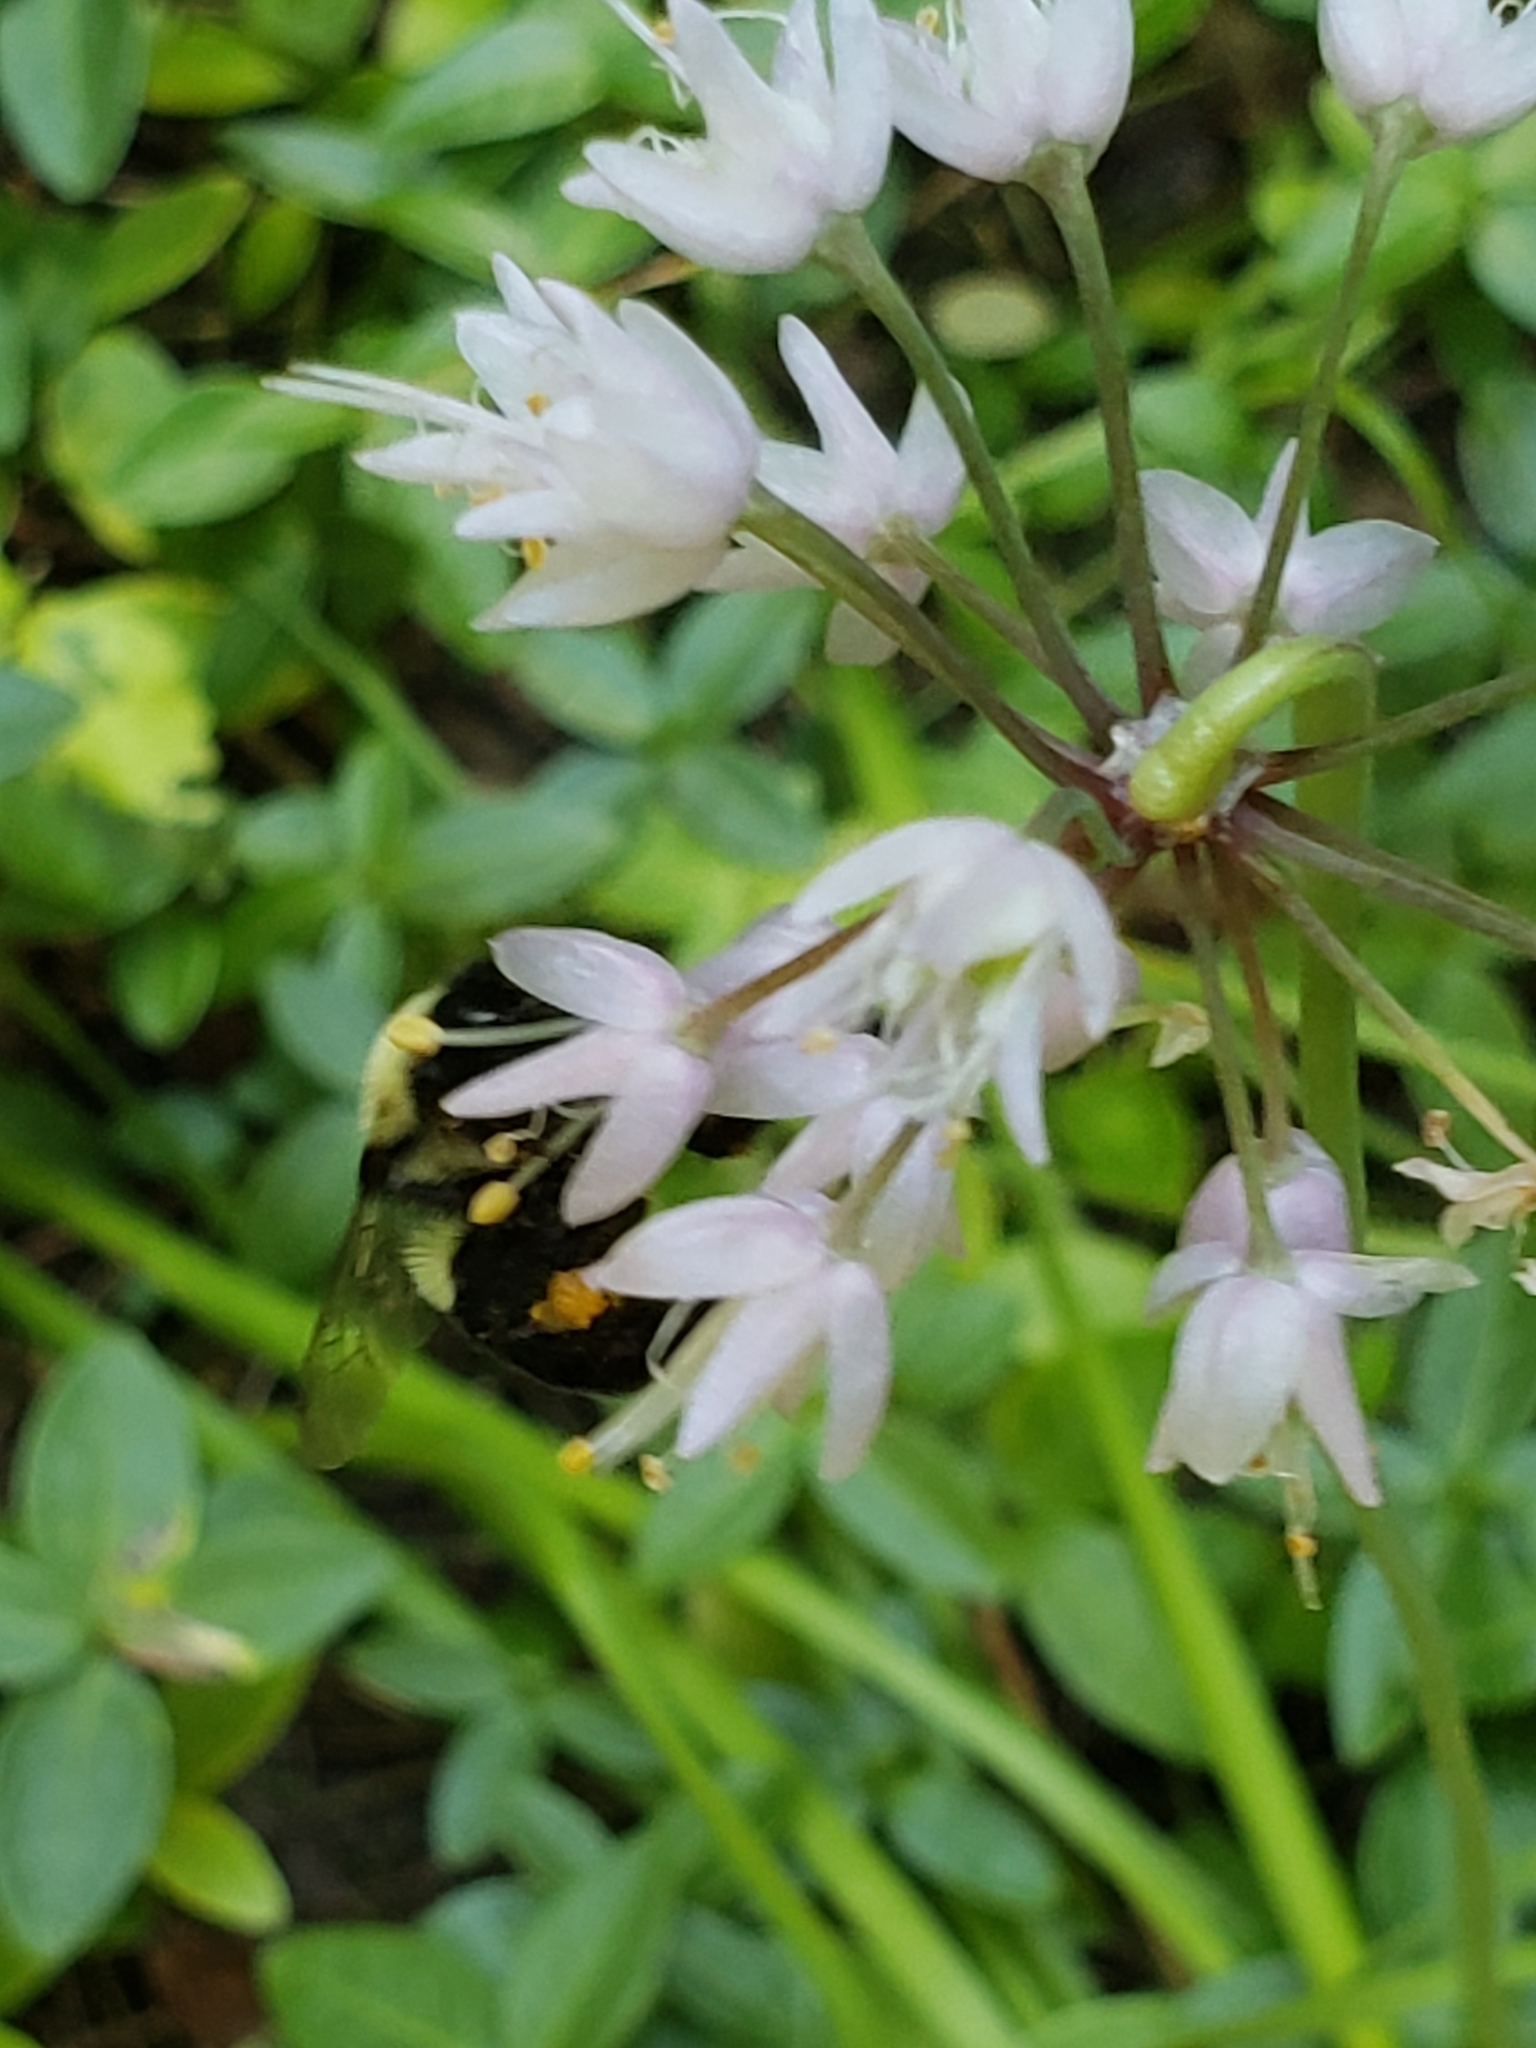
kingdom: Animalia
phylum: Arthropoda
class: Insecta
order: Hymenoptera
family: Apidae
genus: Bombus
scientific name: Bombus impatiens
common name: Common eastern bumble bee
